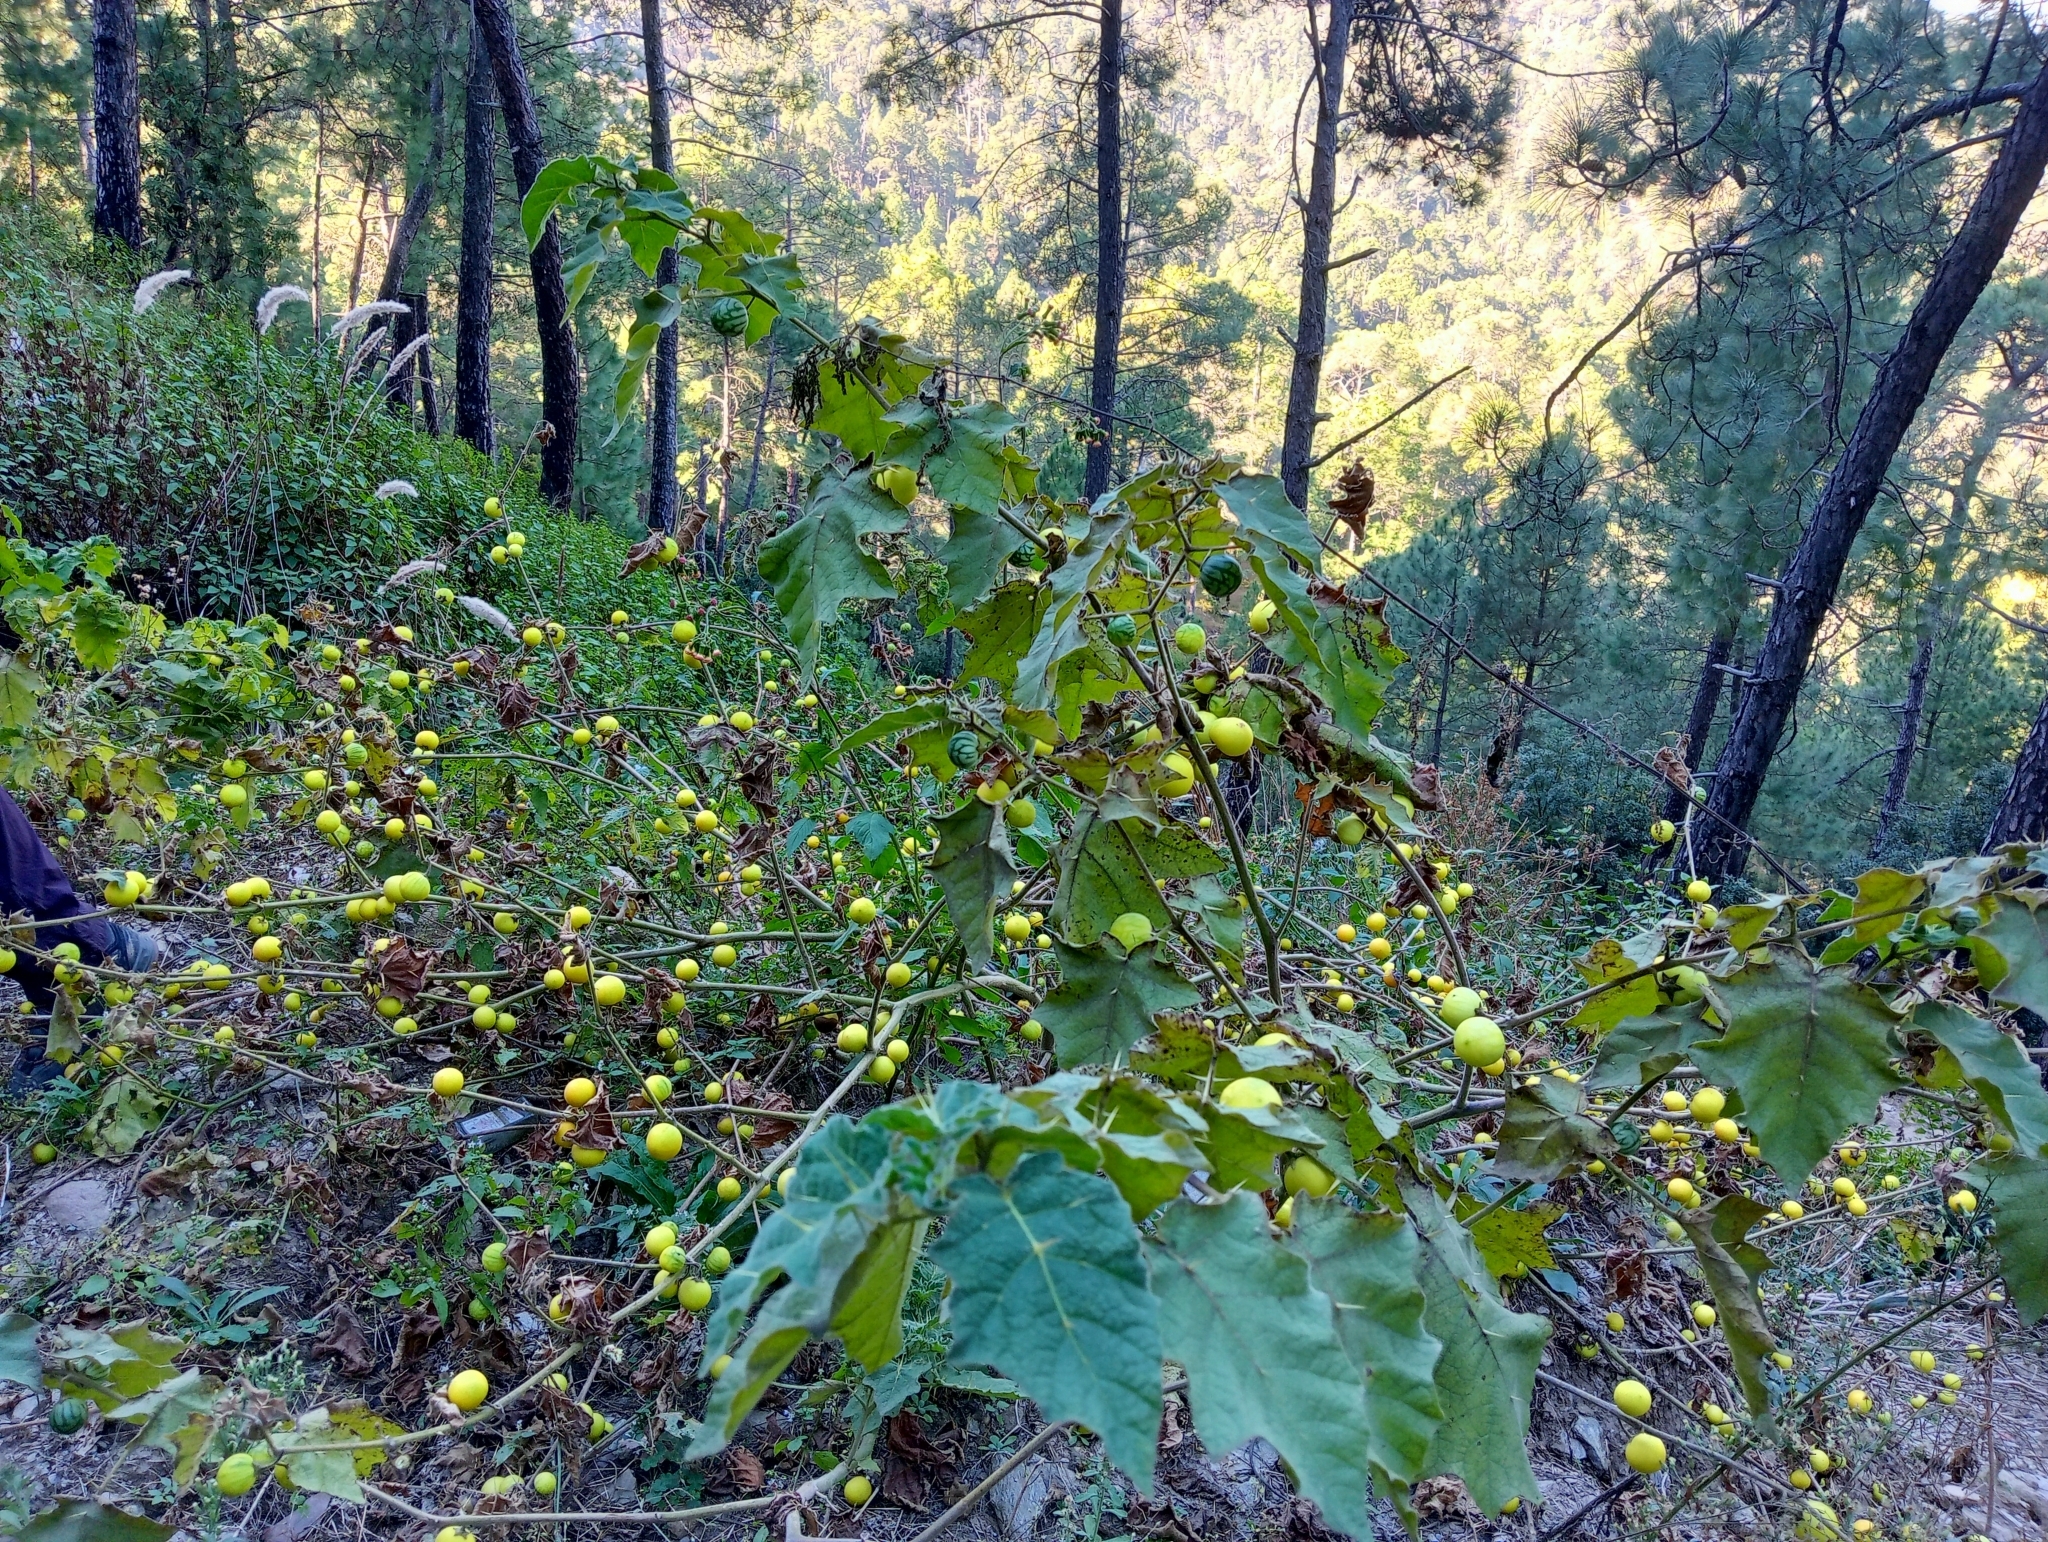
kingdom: Plantae
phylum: Tracheophyta
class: Magnoliopsida
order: Solanales
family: Solanaceae
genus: Solanum
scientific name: Solanum viarum
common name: Tropical soda apple
